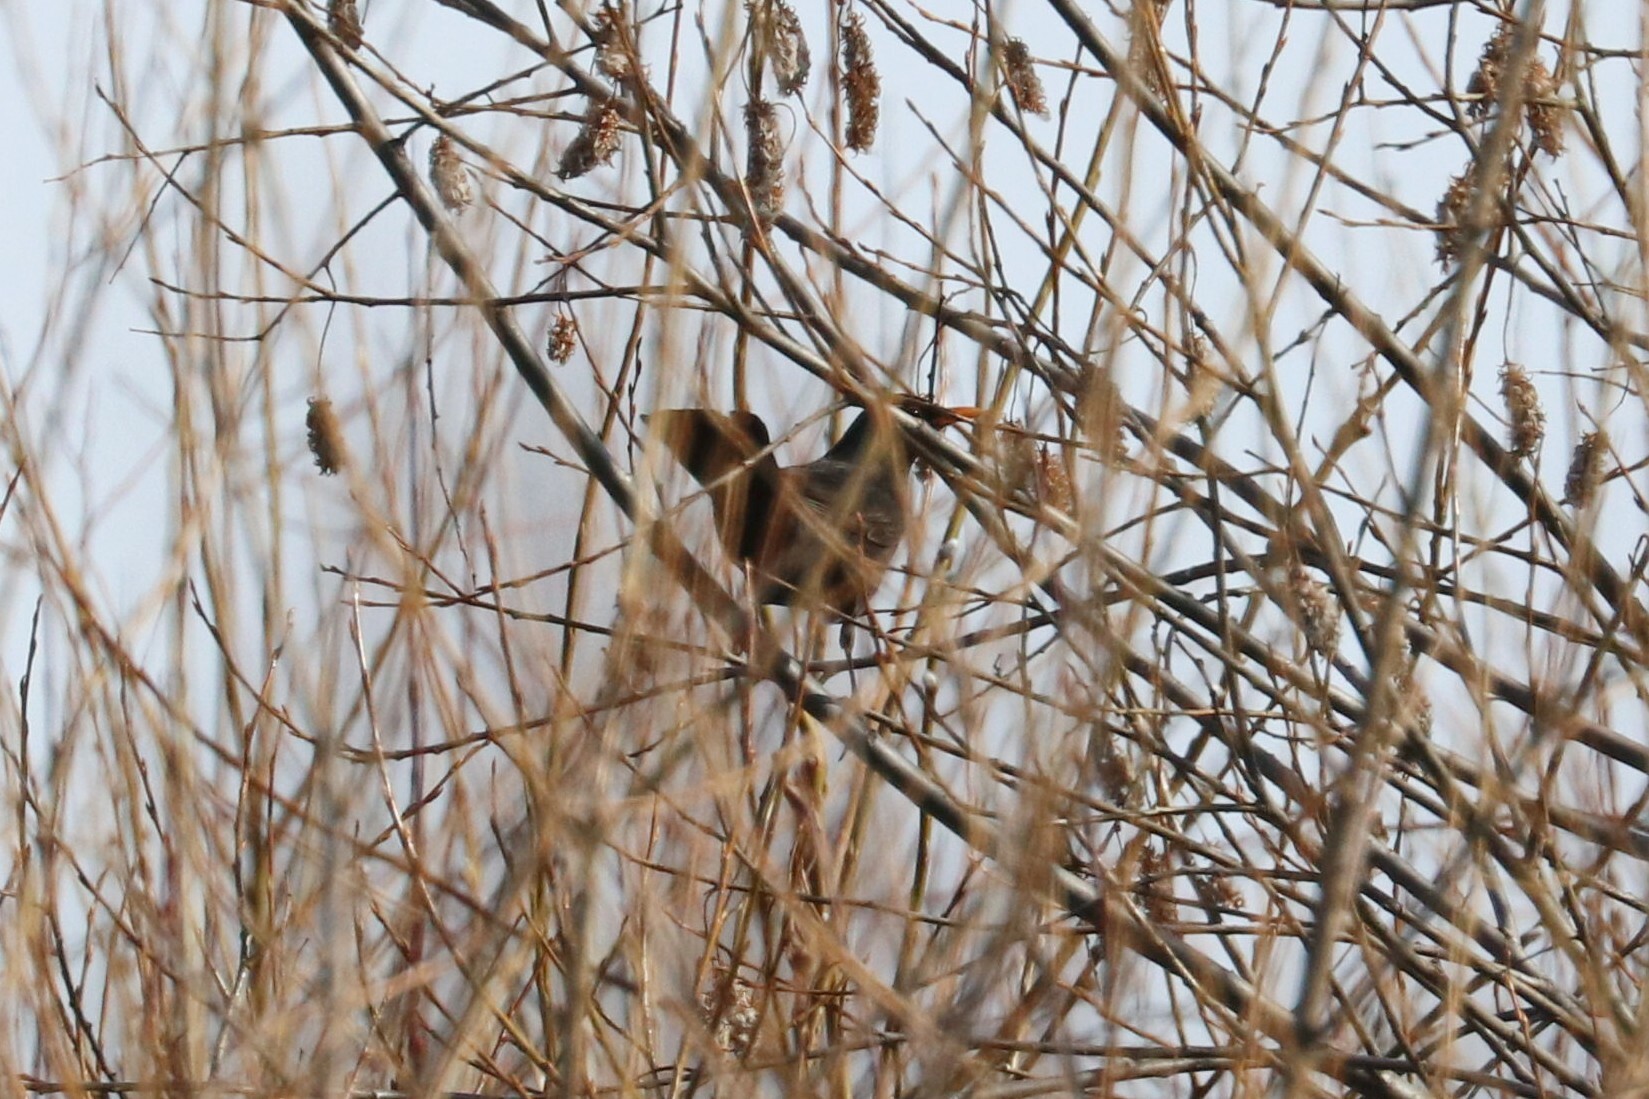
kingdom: Animalia
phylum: Chordata
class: Aves
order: Passeriformes
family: Turdidae
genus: Turdus
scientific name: Turdus merula
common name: Common blackbird
